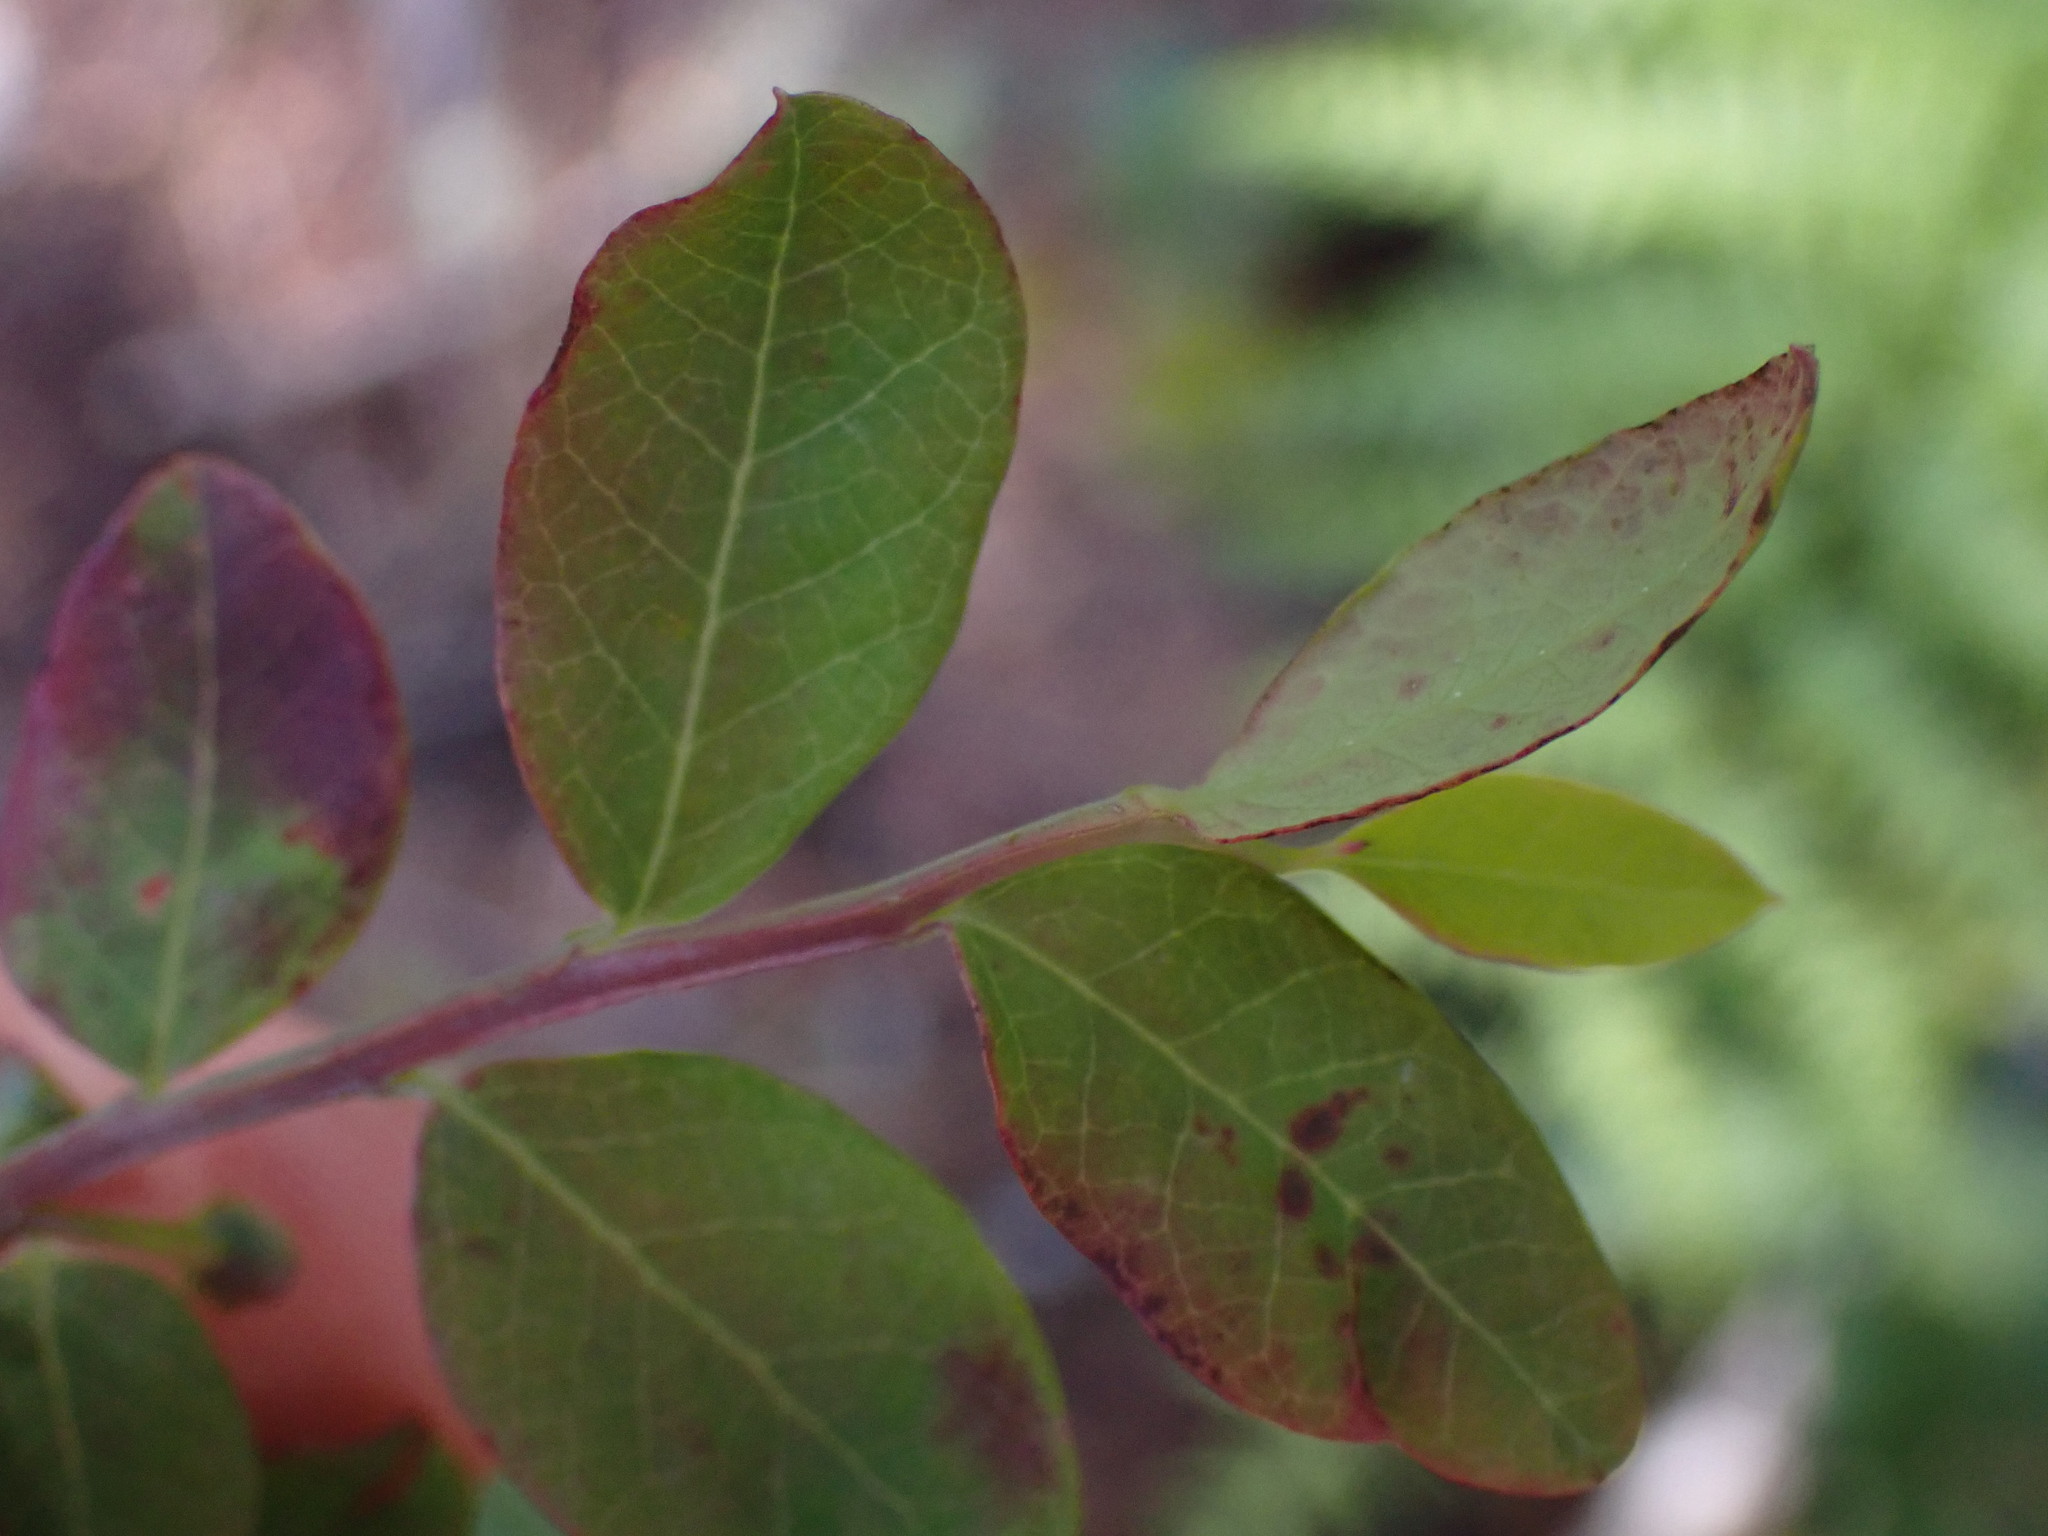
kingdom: Plantae
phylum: Tracheophyta
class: Magnoliopsida
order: Ericales
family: Ericaceae
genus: Vaccinium
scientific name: Vaccinium parvifolium
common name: Red-huckleberry
